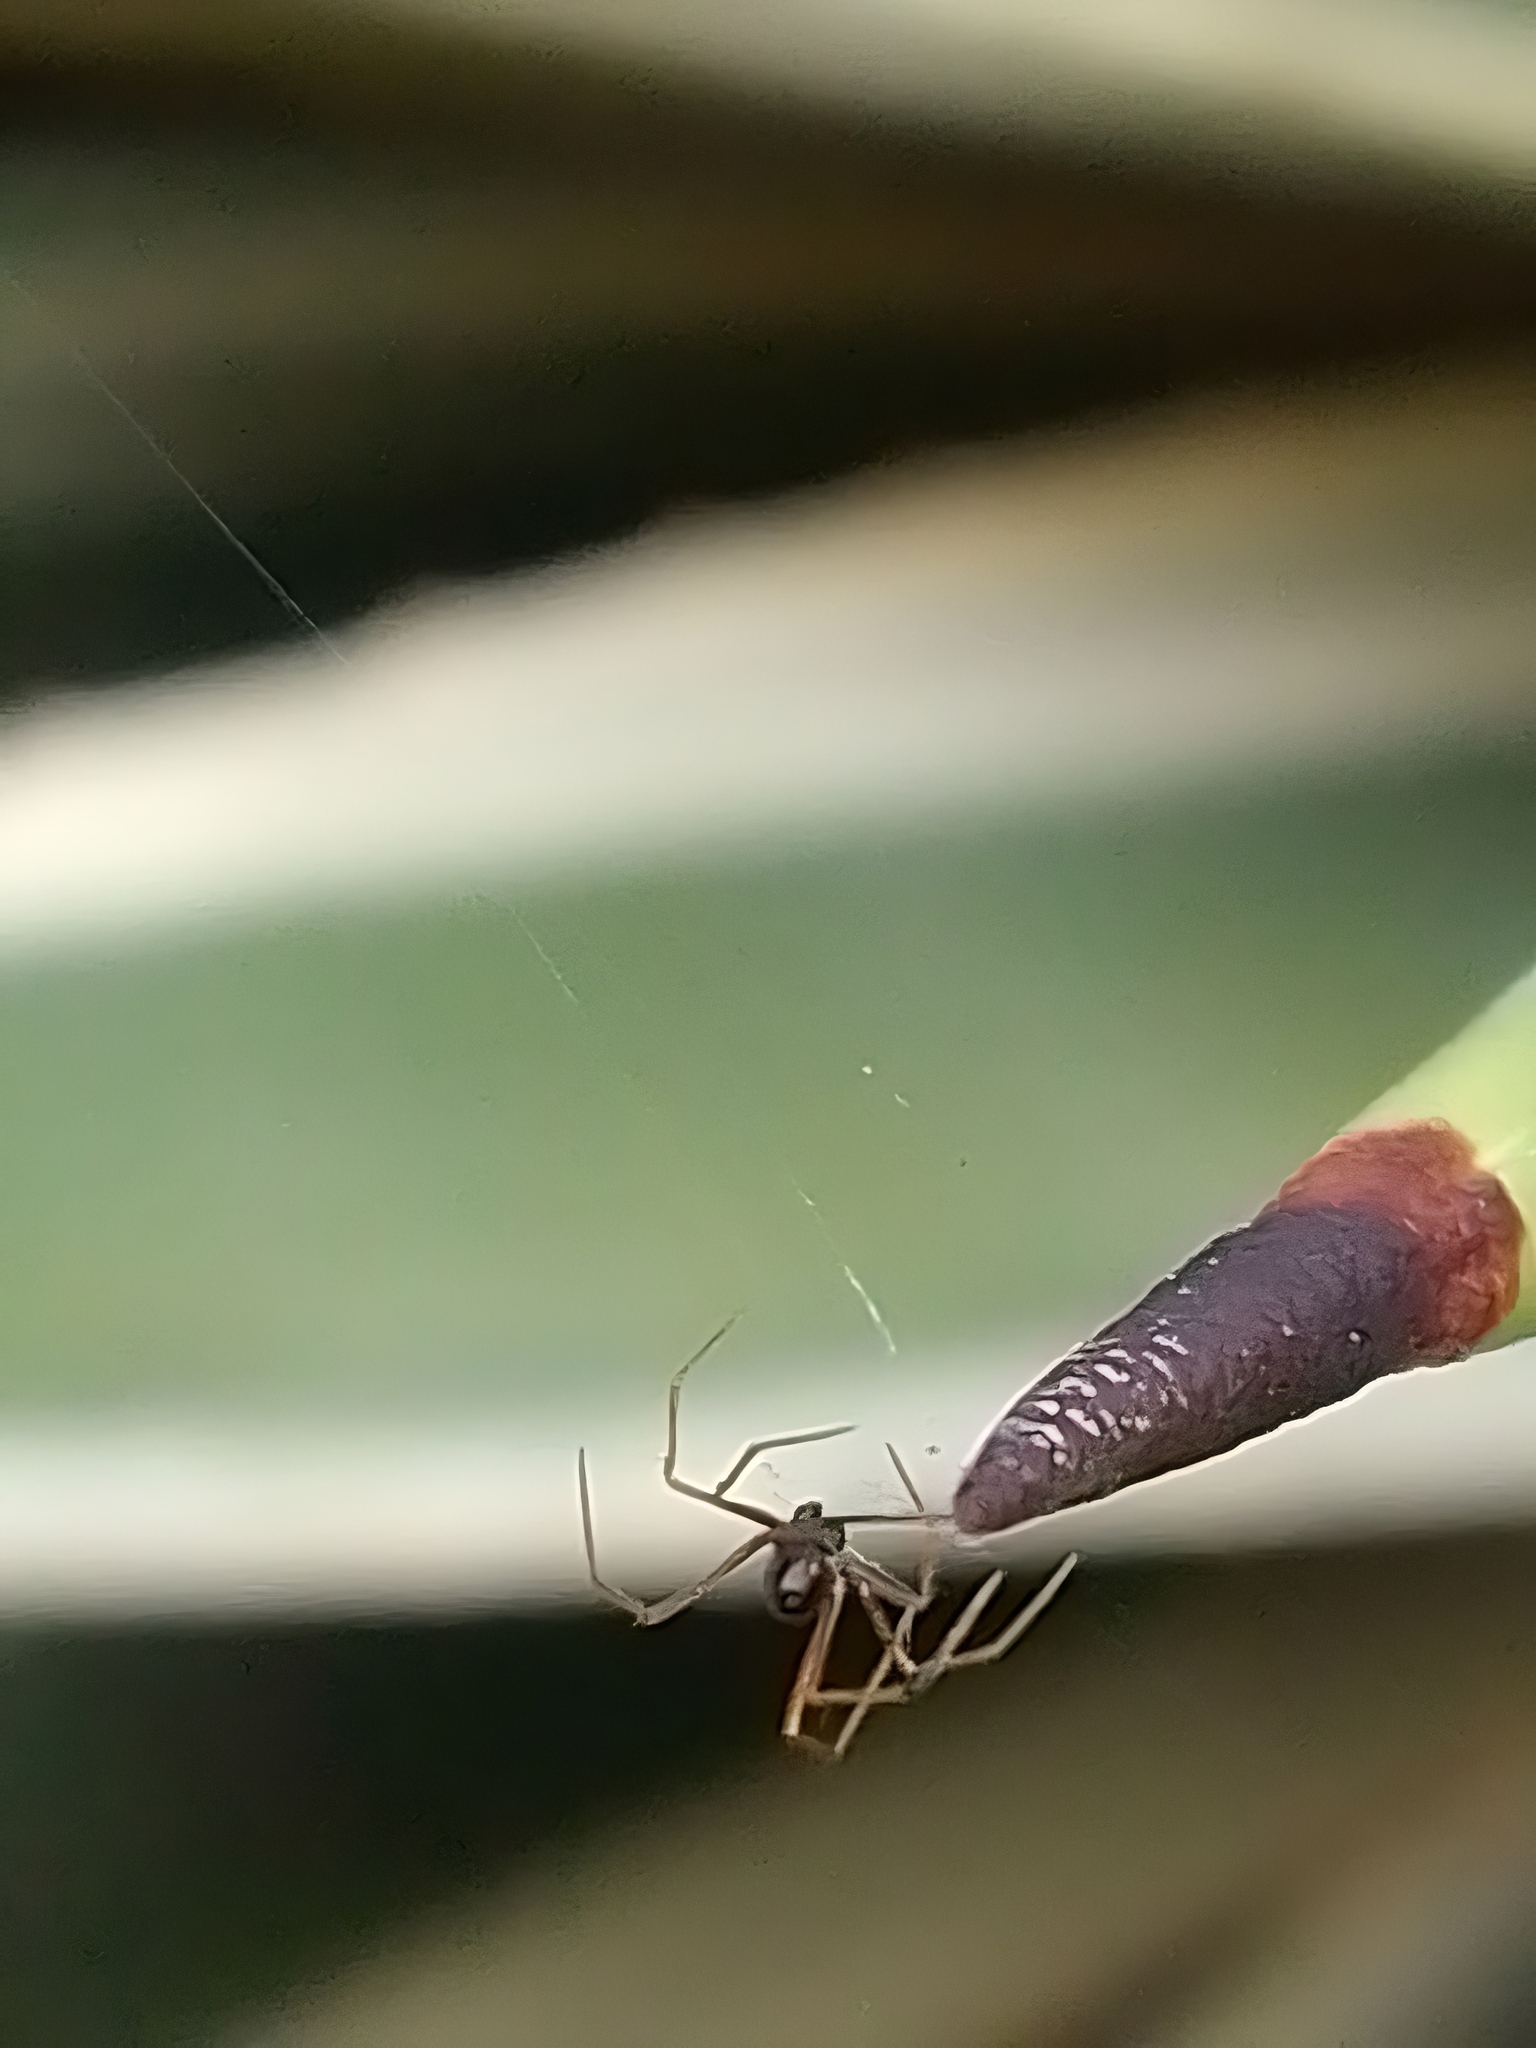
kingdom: Animalia
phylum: Arthropoda
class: Arachnida
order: Araneae
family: Theridiidae
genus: Coleosoma
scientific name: Coleosoma acutiventer
